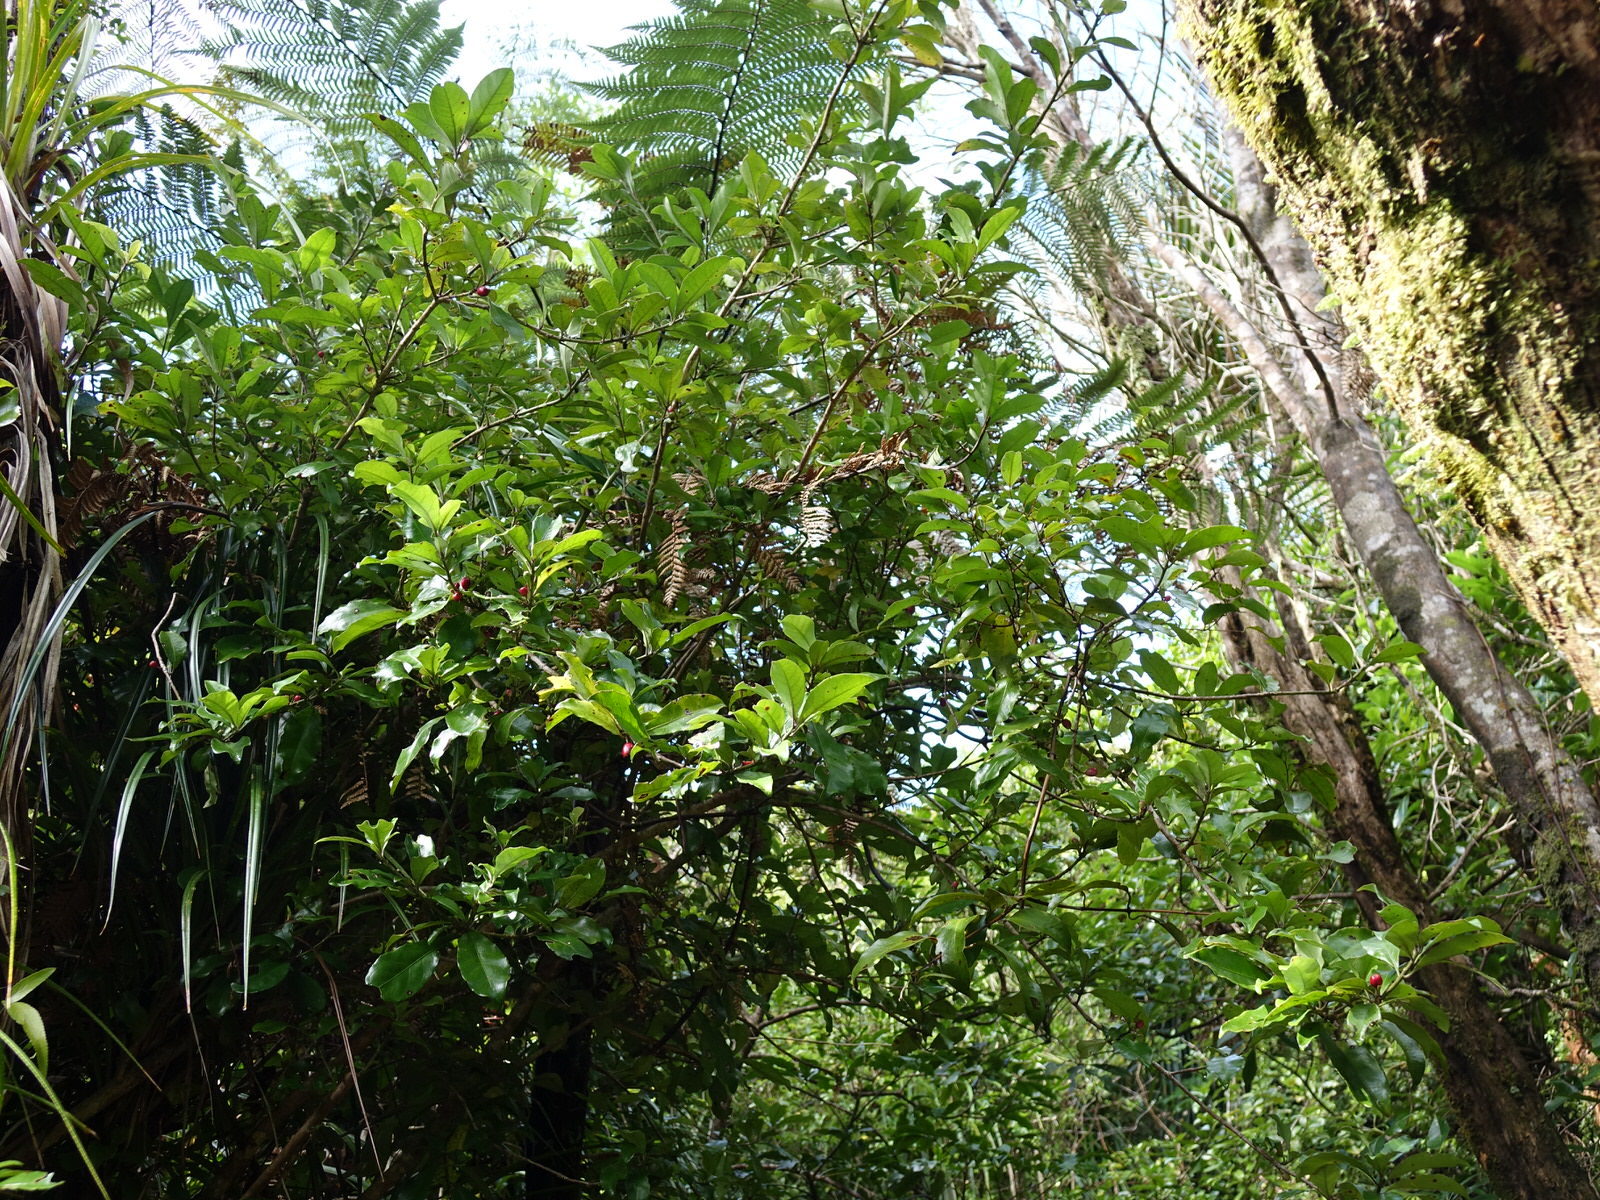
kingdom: Plantae
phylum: Tracheophyta
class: Magnoliopsida
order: Asterales
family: Alseuosmiaceae
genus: Alseuosmia
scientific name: Alseuosmia macrophylla
